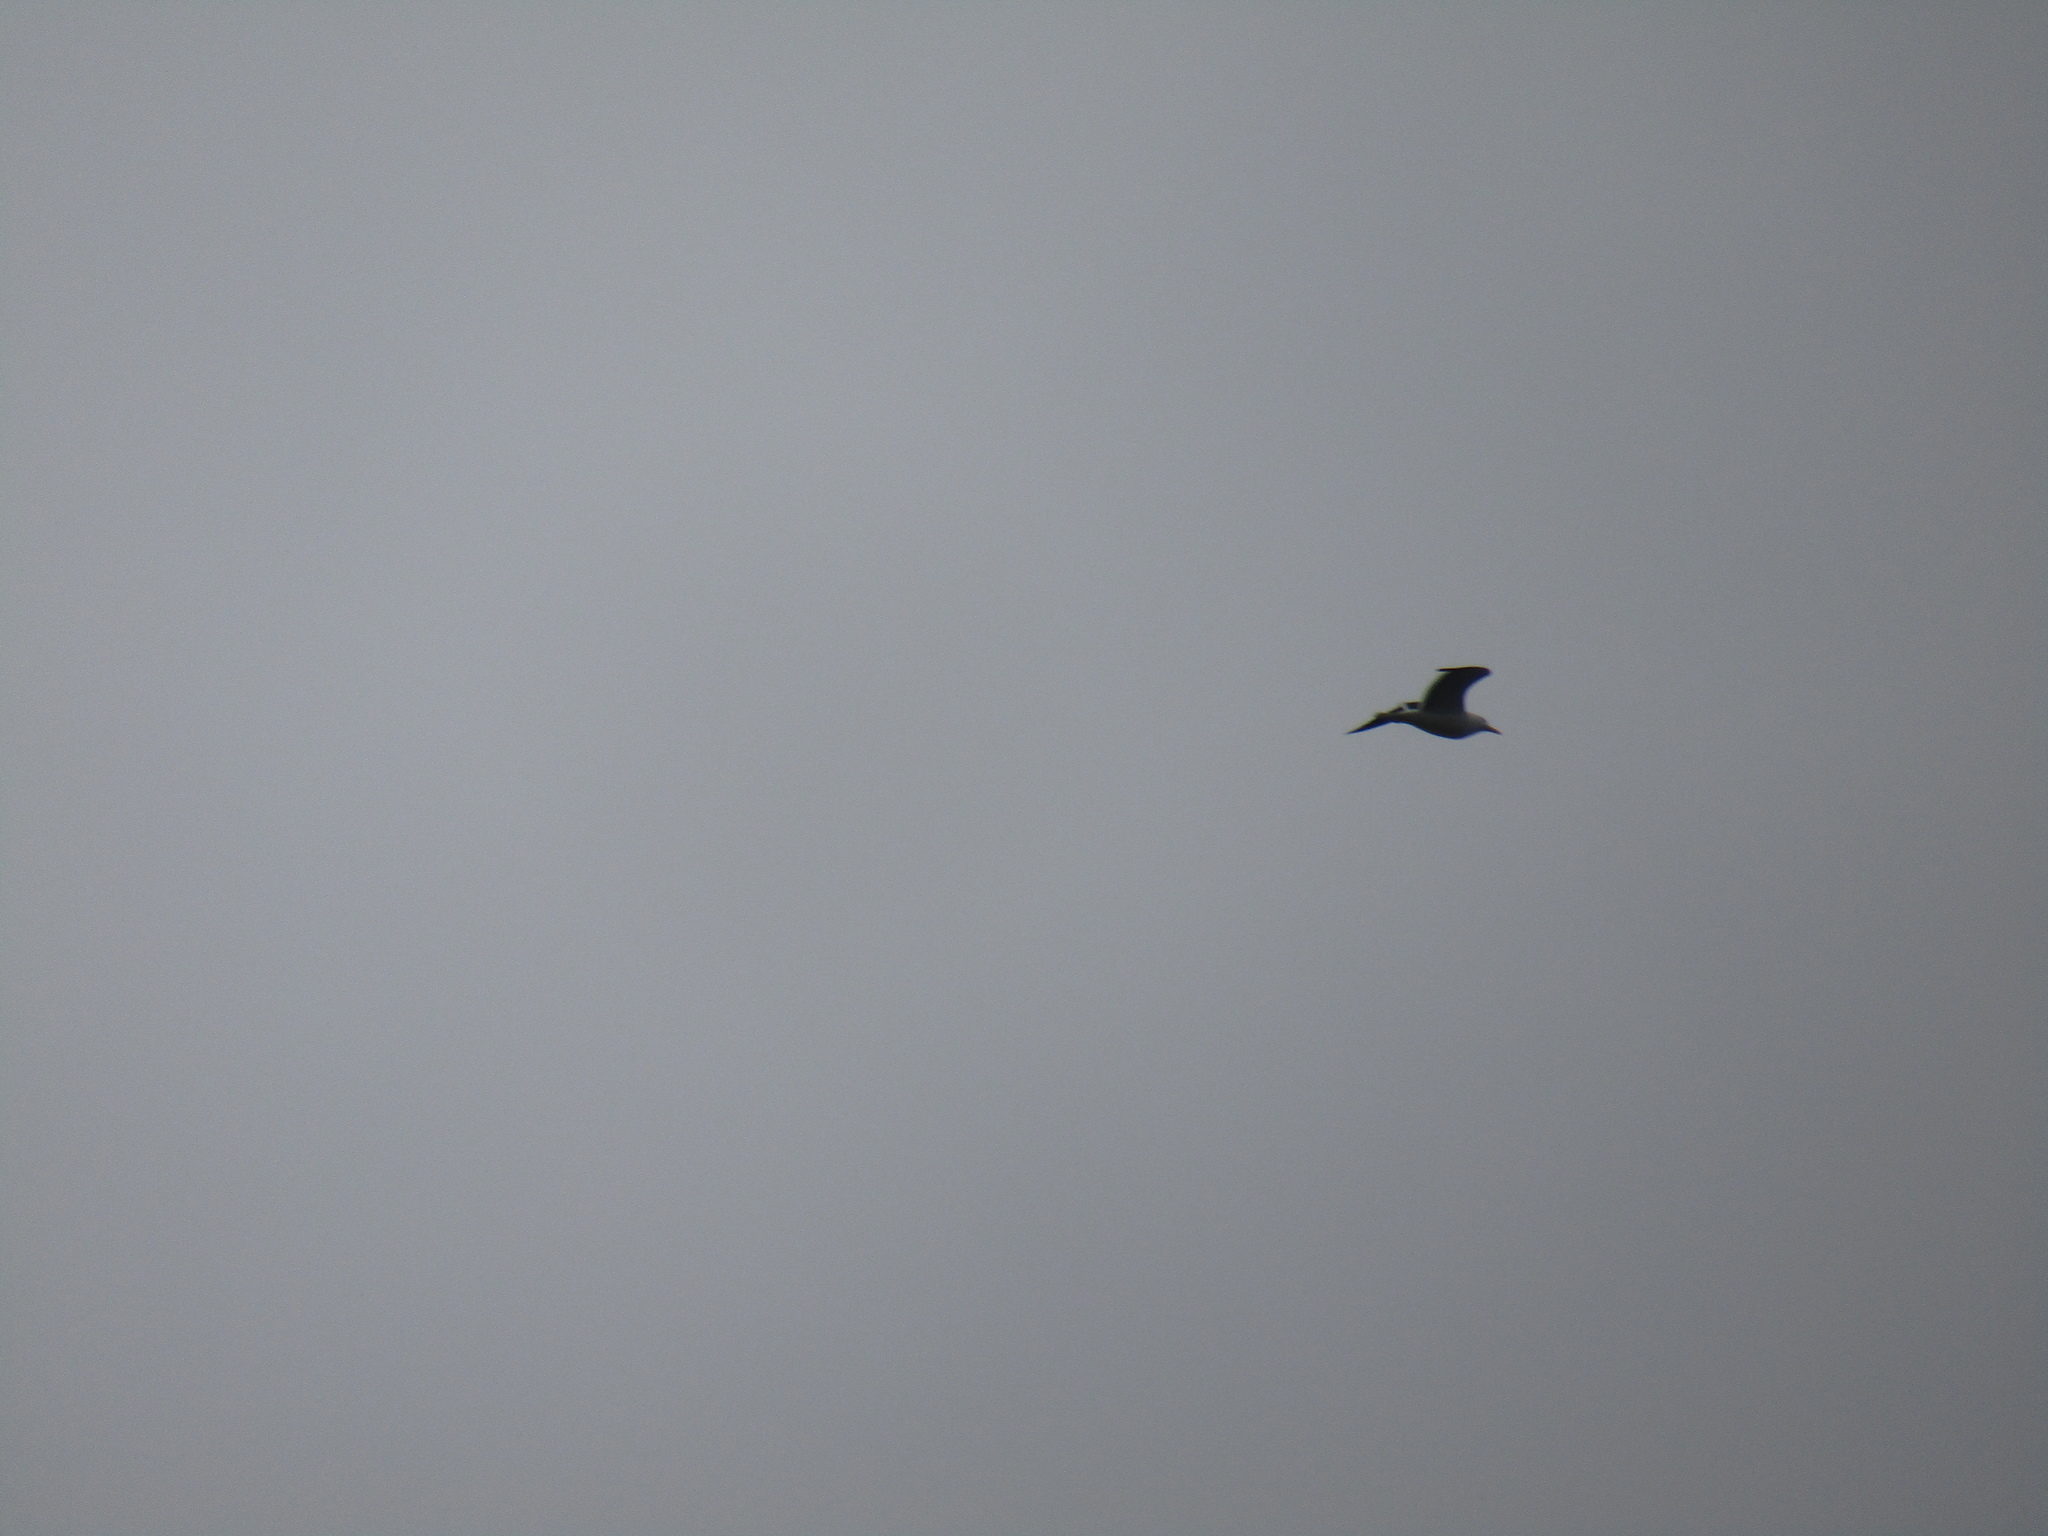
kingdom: Animalia
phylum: Chordata
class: Aves
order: Charadriiformes
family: Laridae
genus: Larus
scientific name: Larus dominicanus
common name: Kelp gull
